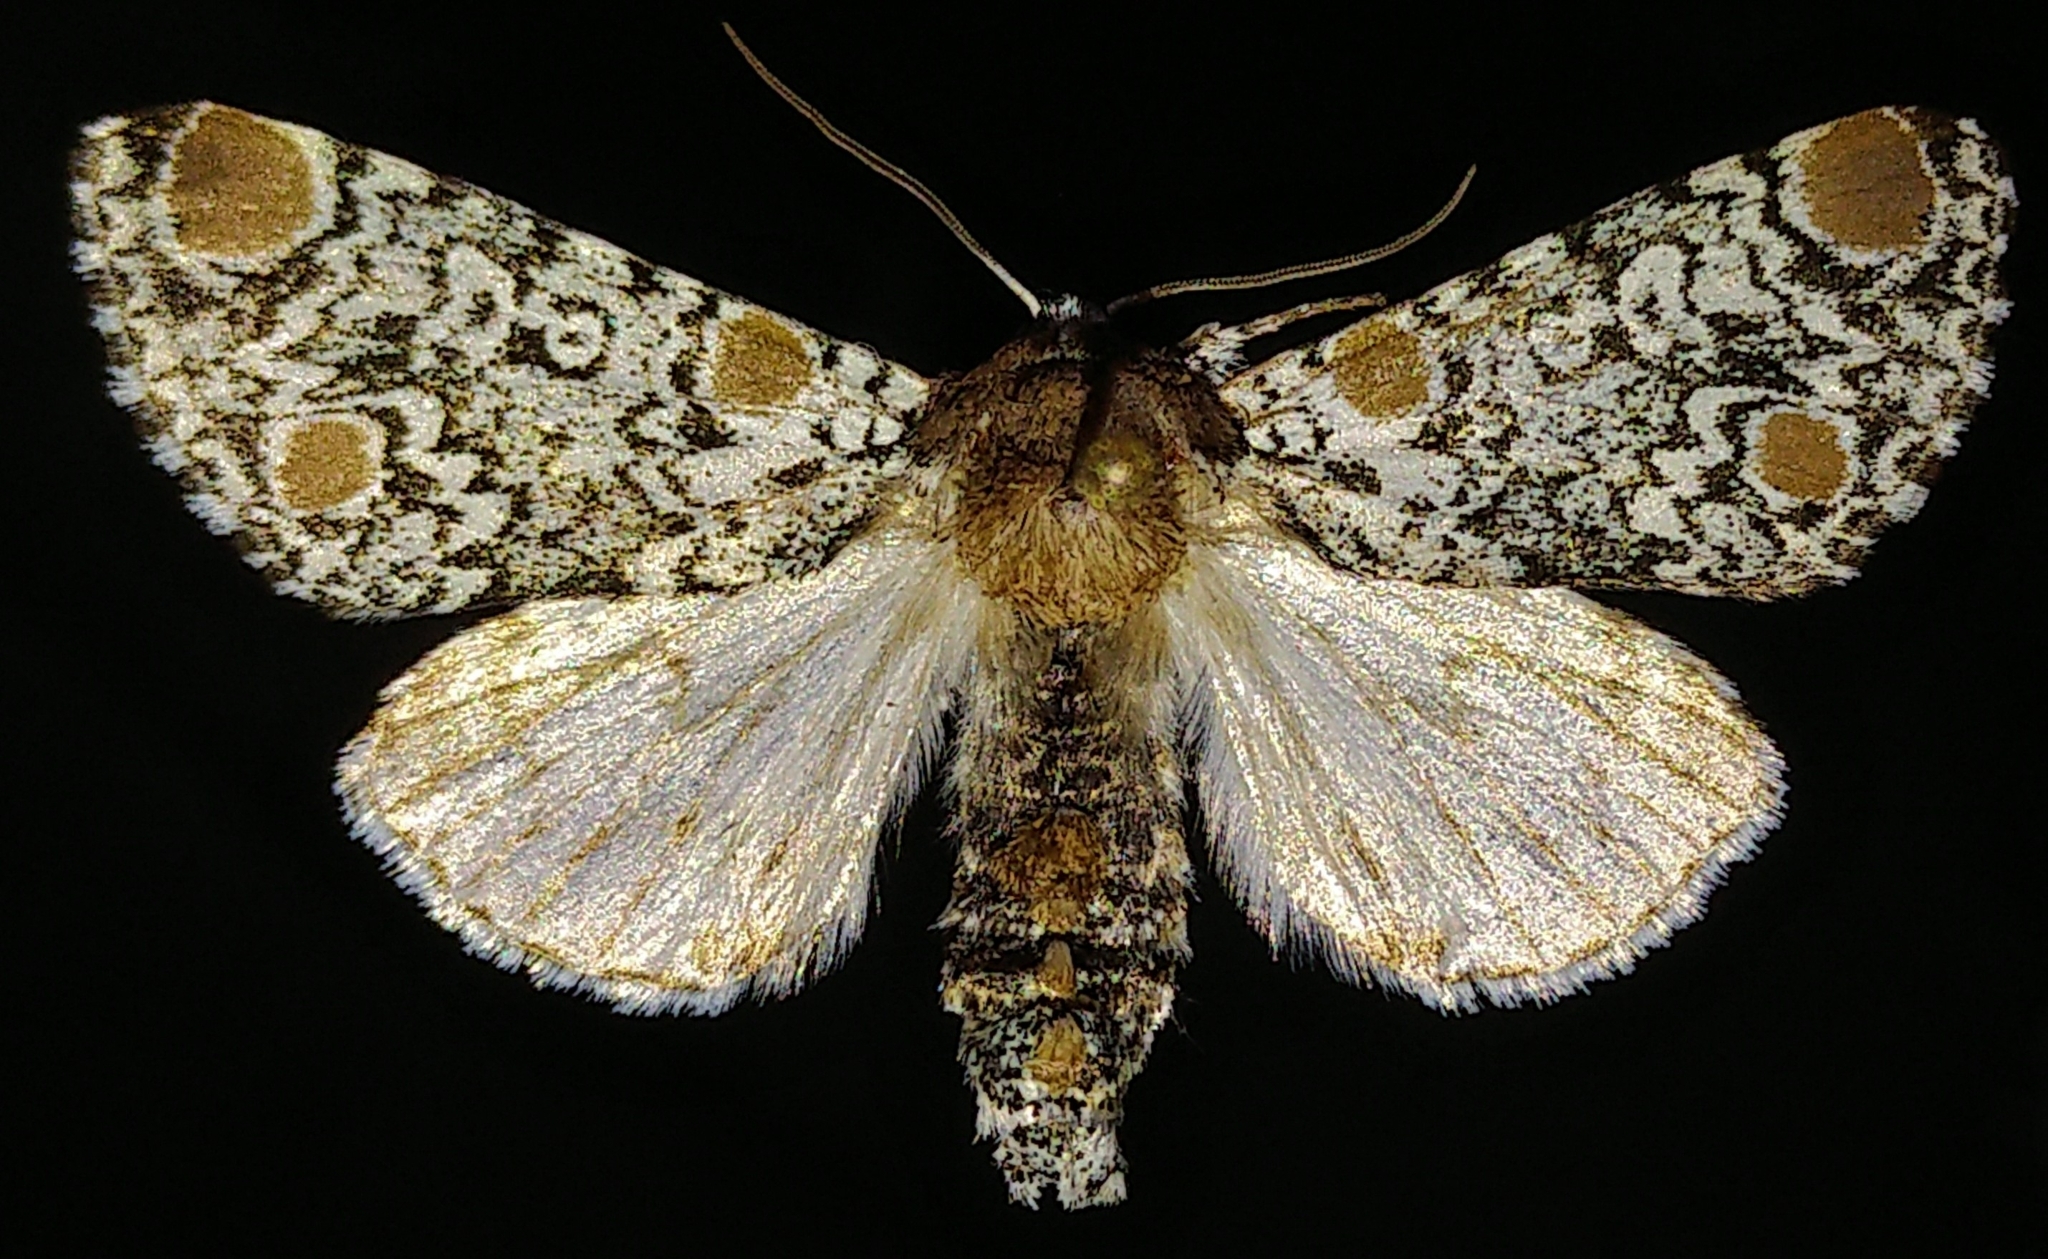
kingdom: Animalia
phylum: Arthropoda
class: Insecta
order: Lepidoptera
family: Noctuidae
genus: Harrisimemna
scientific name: Harrisimemna trisignata
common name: Harris threespot
